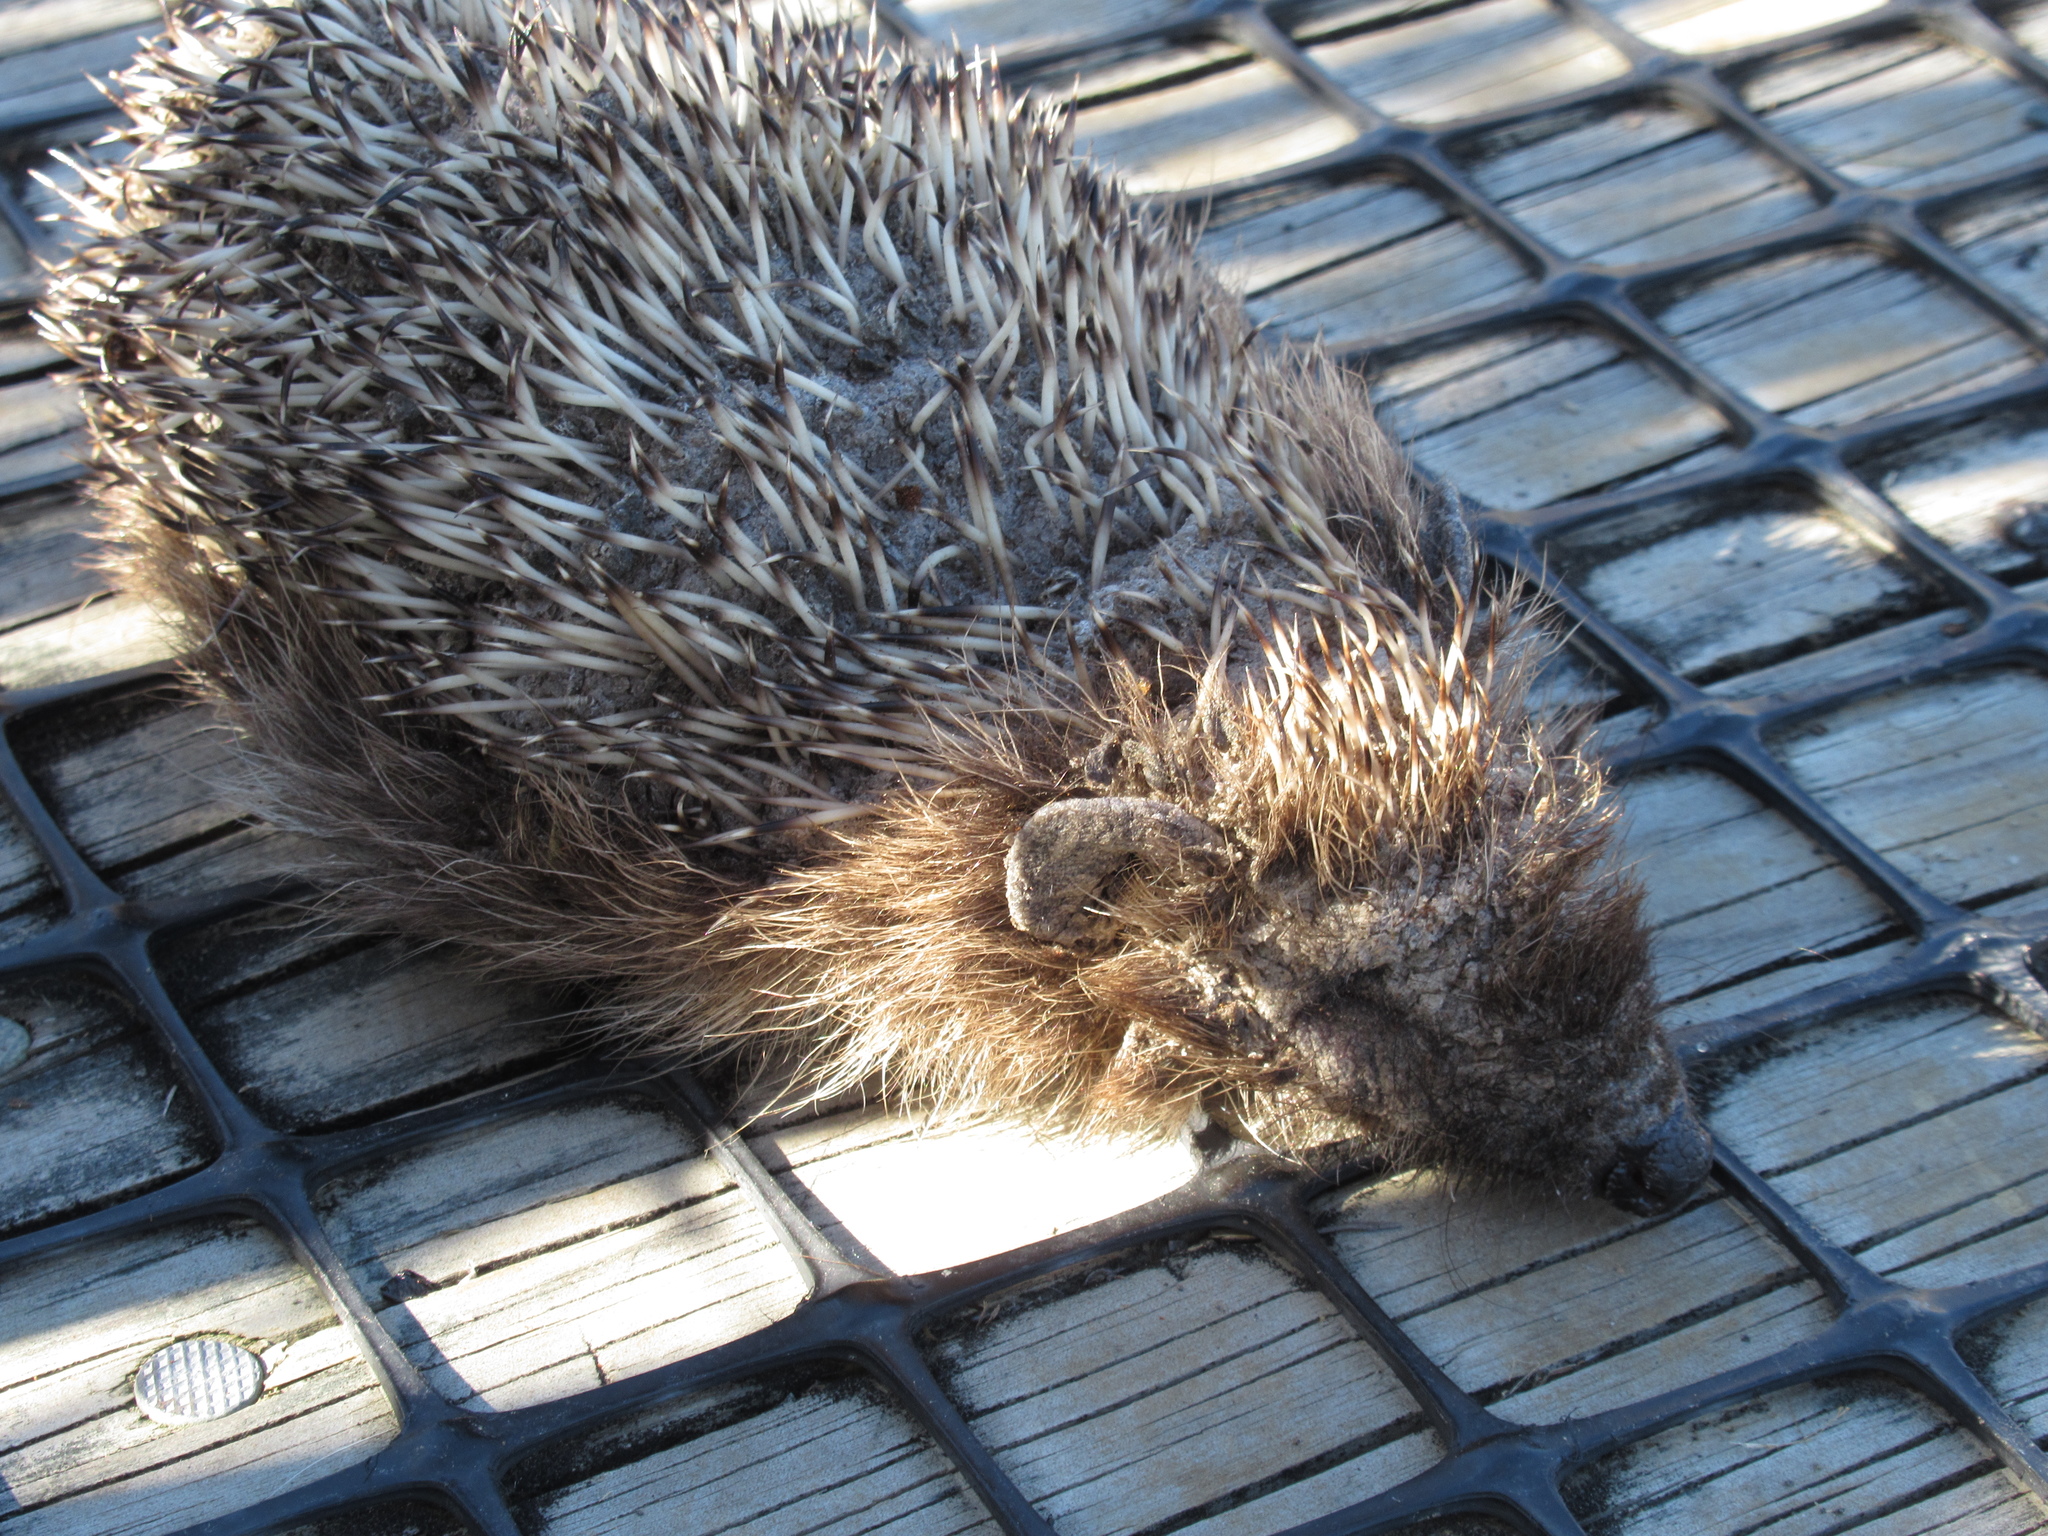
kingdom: Animalia
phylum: Chordata
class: Mammalia
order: Erinaceomorpha
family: Erinaceidae
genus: Erinaceus
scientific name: Erinaceus europaeus
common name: West european hedgehog
